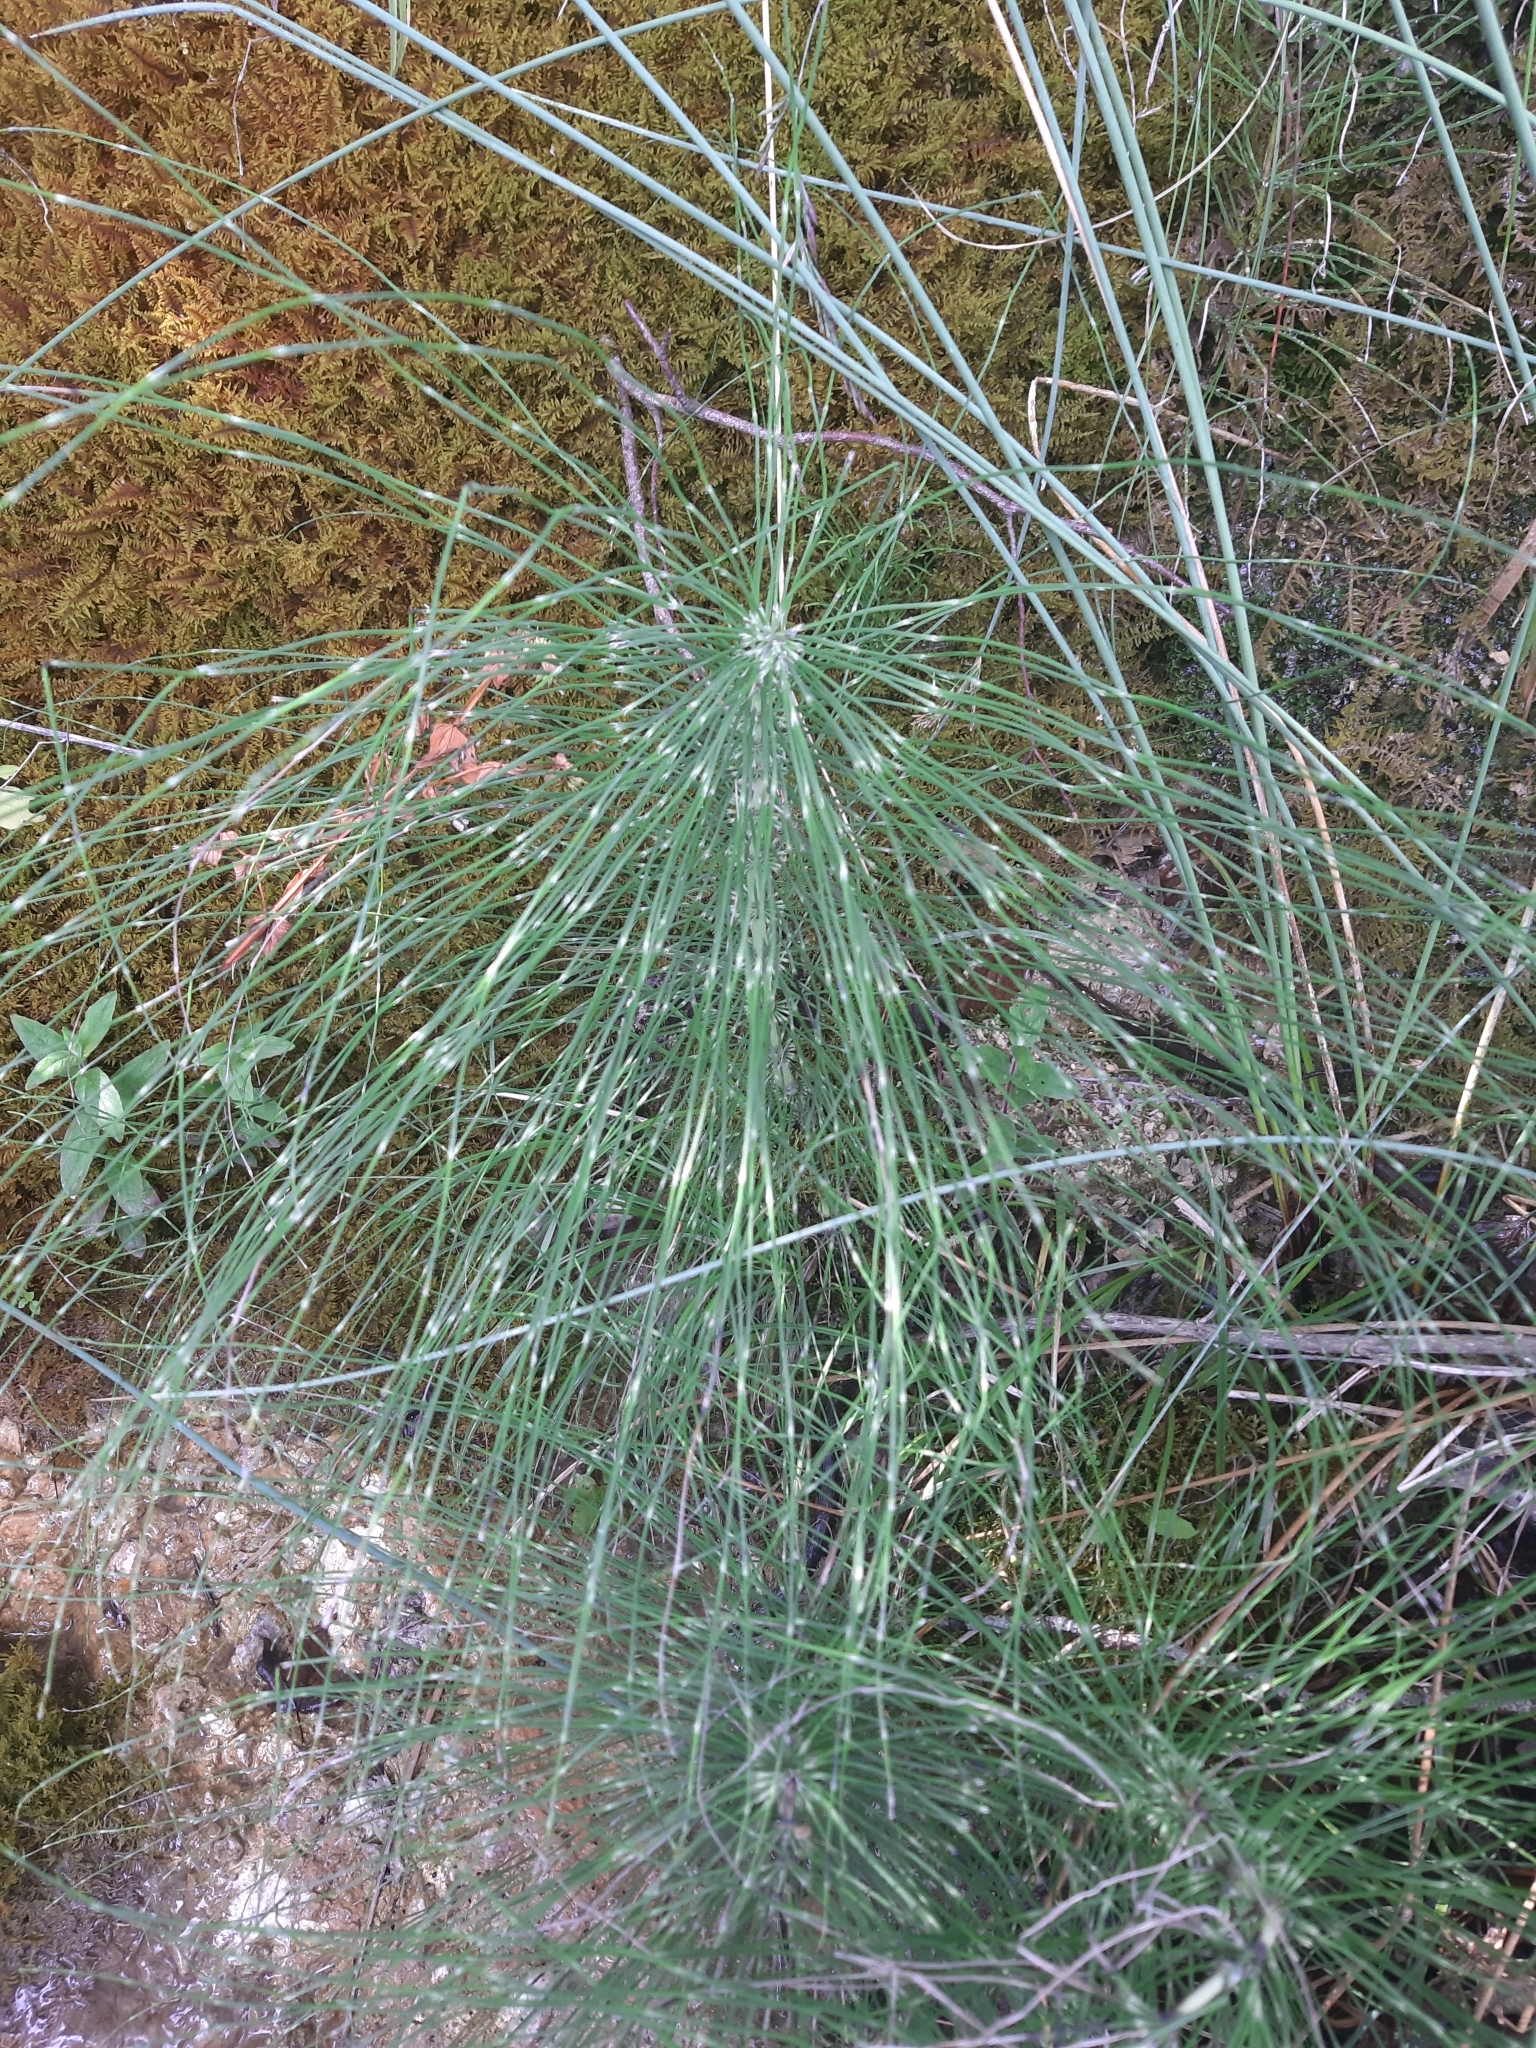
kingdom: Plantae
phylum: Tracheophyta
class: Polypodiopsida
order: Equisetales
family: Equisetaceae
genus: Equisetum
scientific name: Equisetum telmateia
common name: Great horsetail
